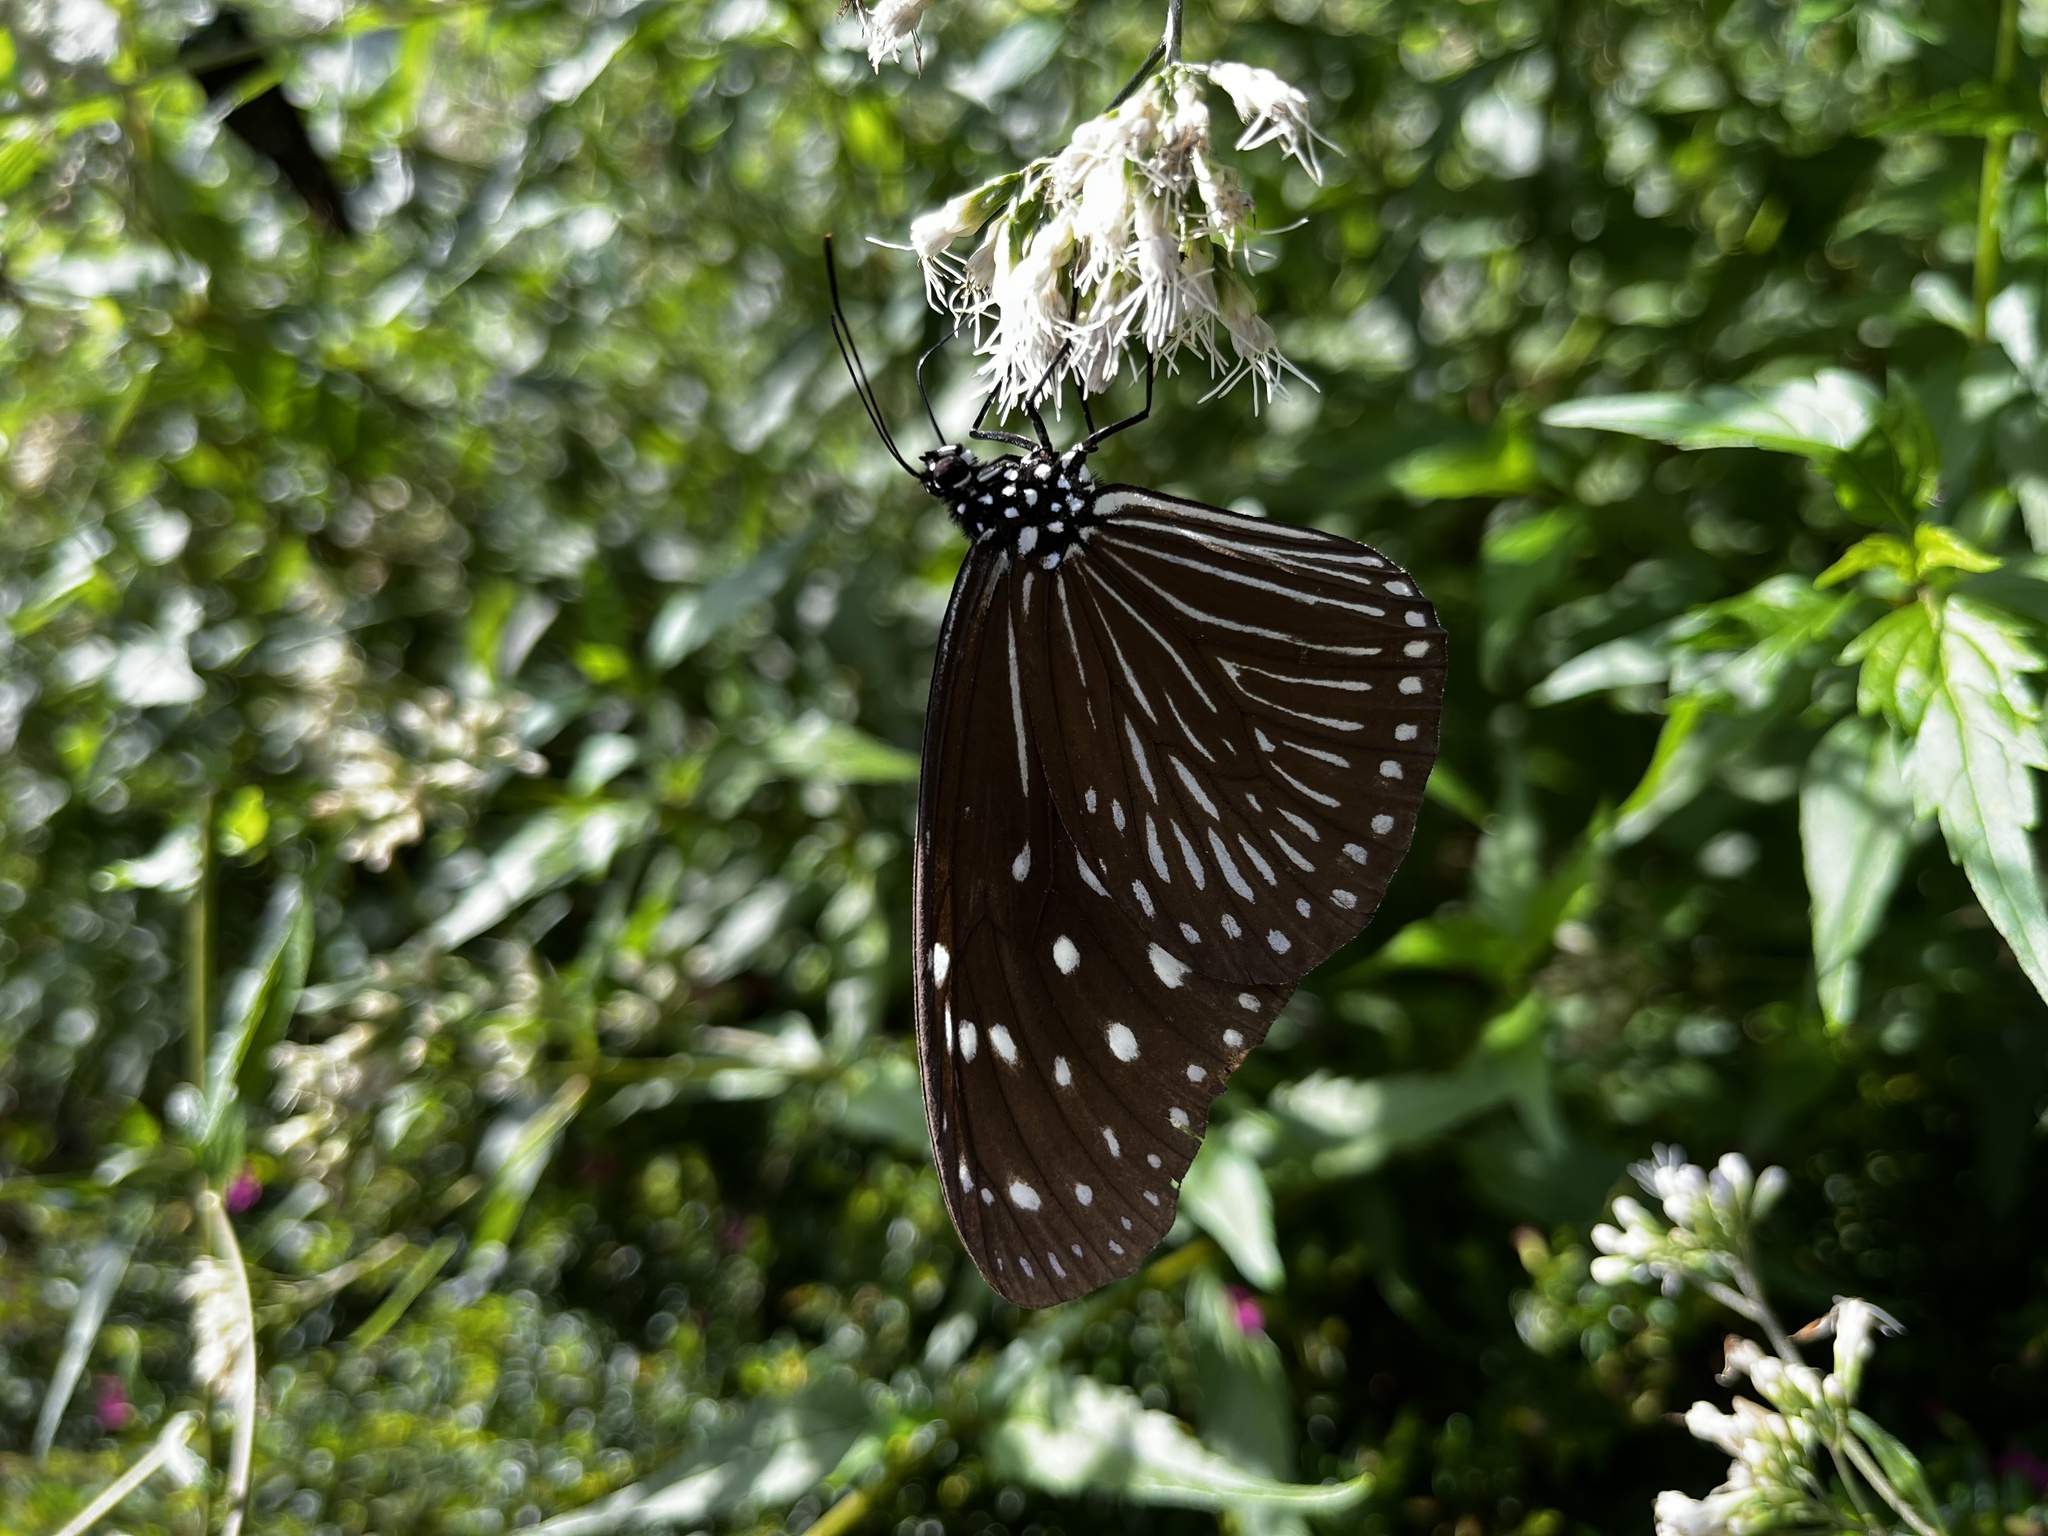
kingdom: Animalia
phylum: Arthropoda
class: Insecta
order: Lepidoptera
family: Nymphalidae
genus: Euploea
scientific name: Euploea mulciber
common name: Striped blue crow butterfly
